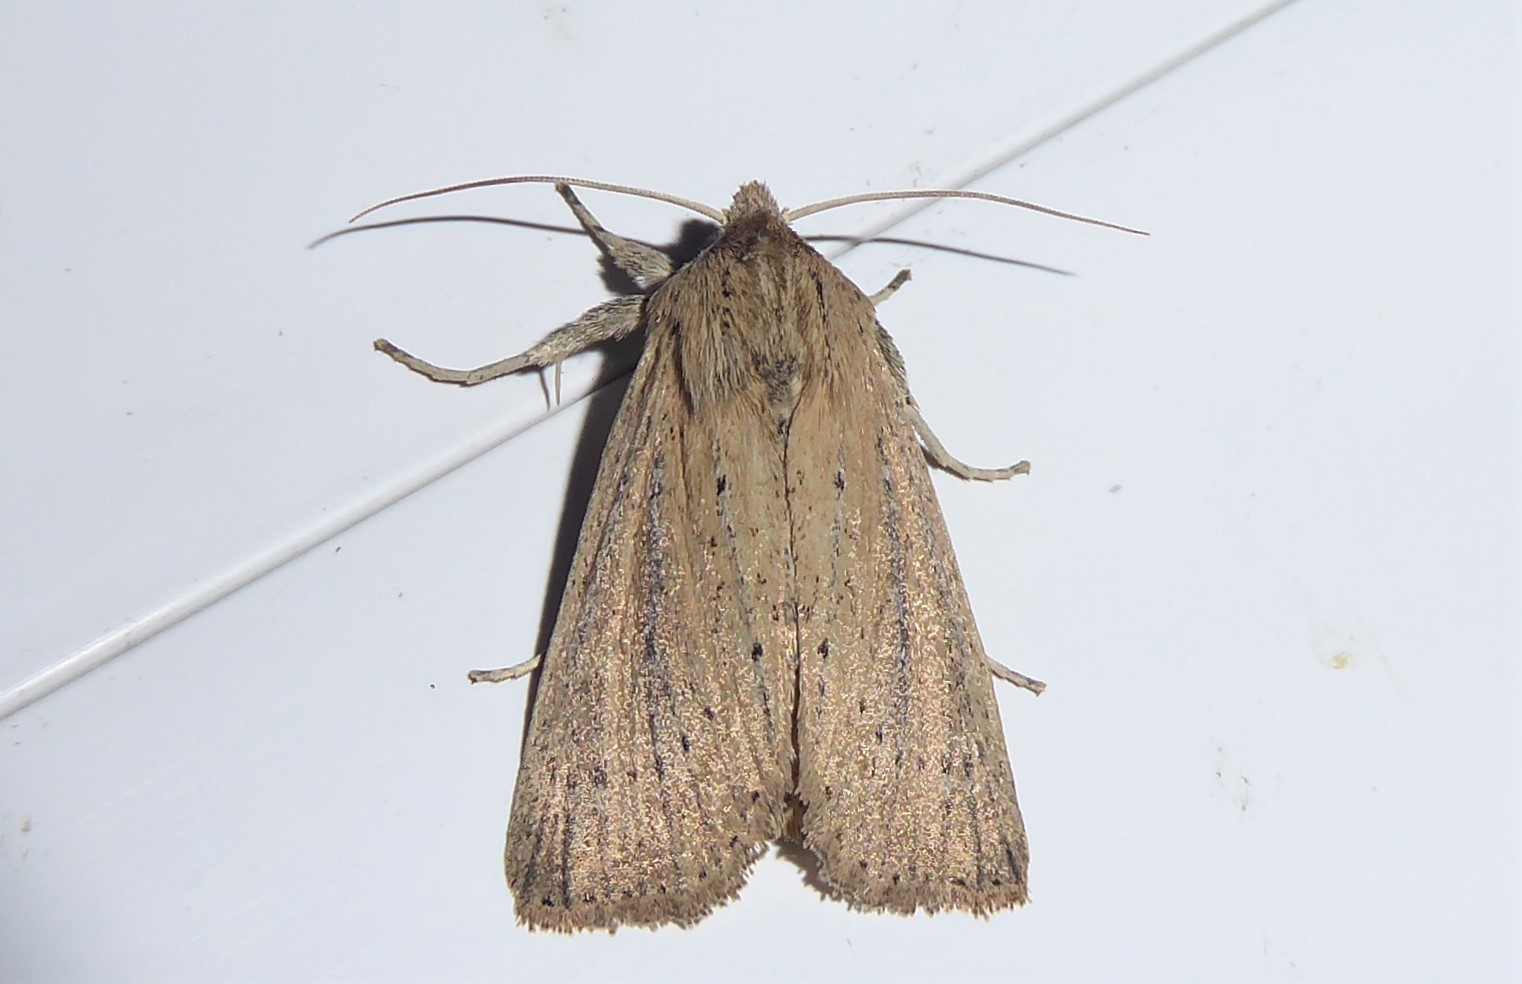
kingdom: Animalia
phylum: Arthropoda
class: Insecta
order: Lepidoptera
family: Noctuidae
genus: Ichneutica
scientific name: Ichneutica
